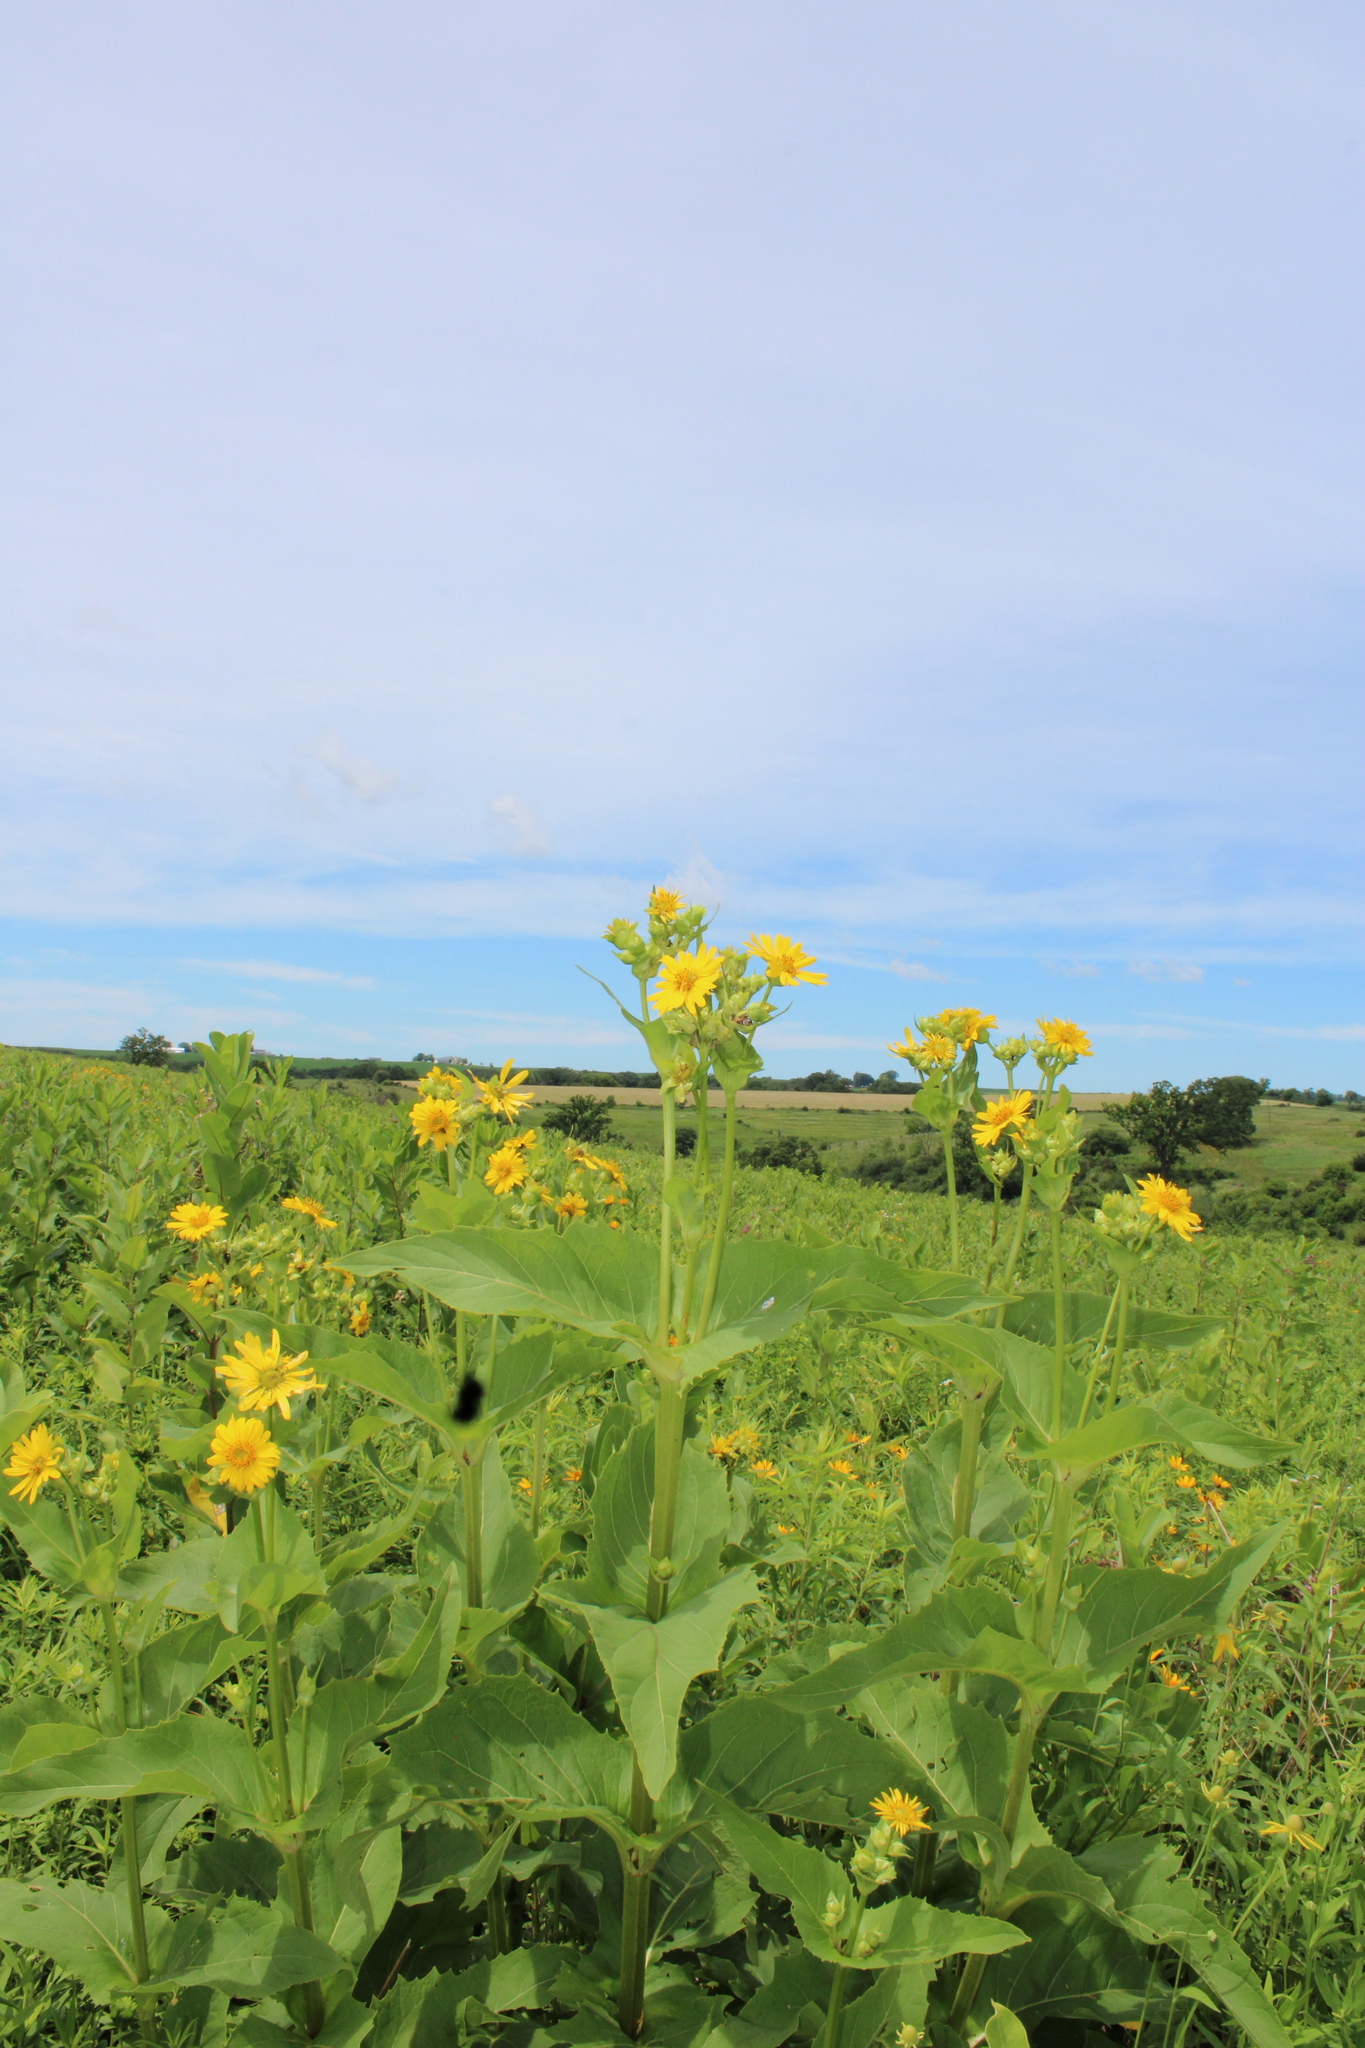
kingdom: Plantae
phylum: Tracheophyta
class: Magnoliopsida
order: Asterales
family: Asteraceae
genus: Silphium
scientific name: Silphium perfoliatum
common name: Cup-plant
